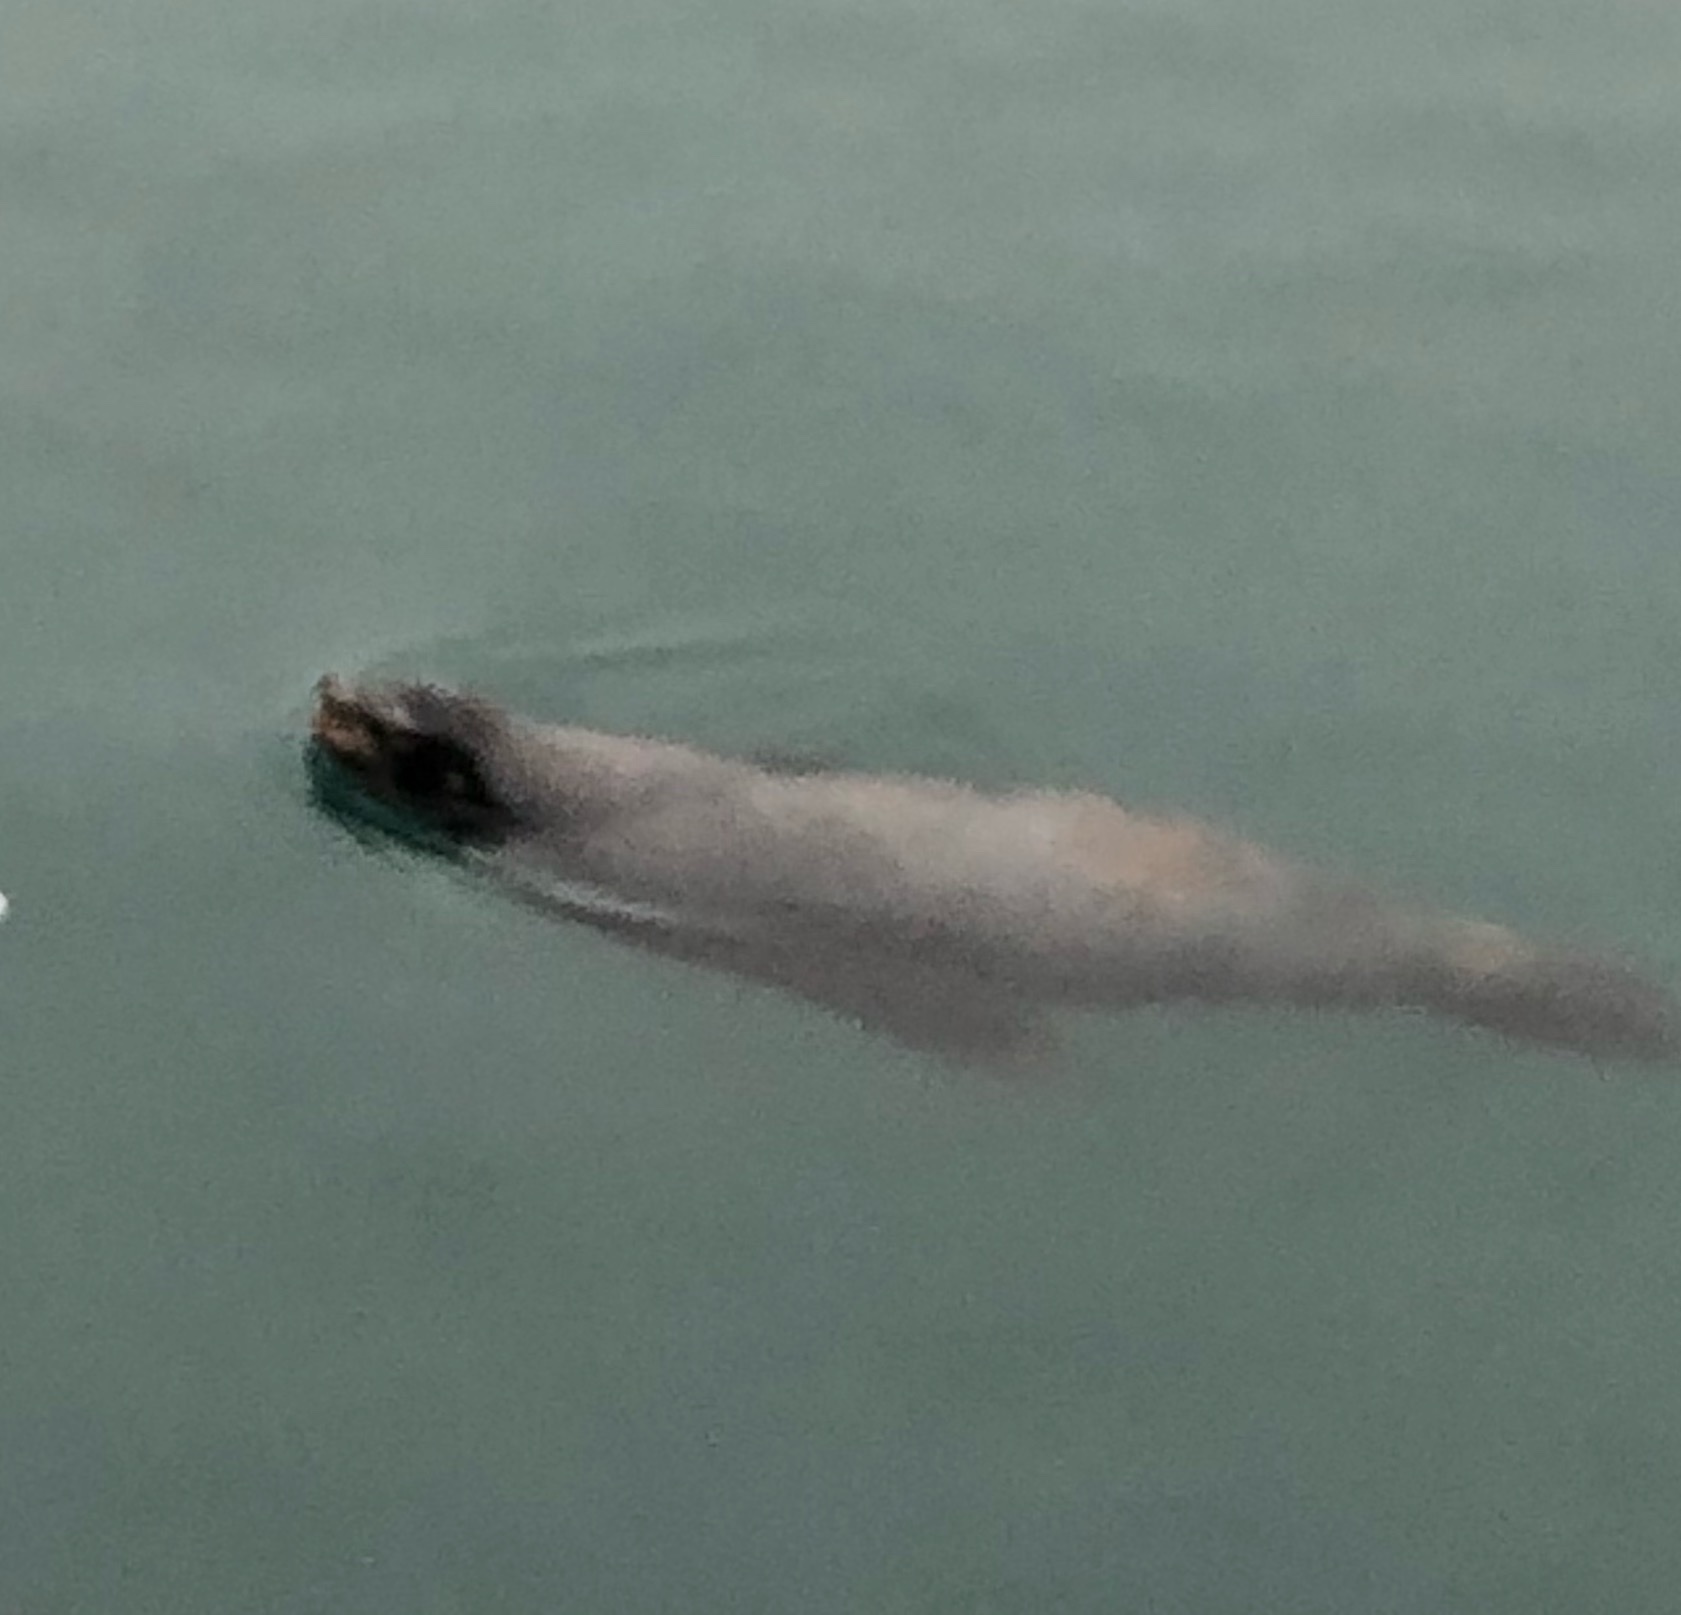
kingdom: Animalia
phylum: Chordata
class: Mammalia
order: Carnivora
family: Otariidae
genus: Zalophus
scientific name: Zalophus californianus
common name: California sea lion
